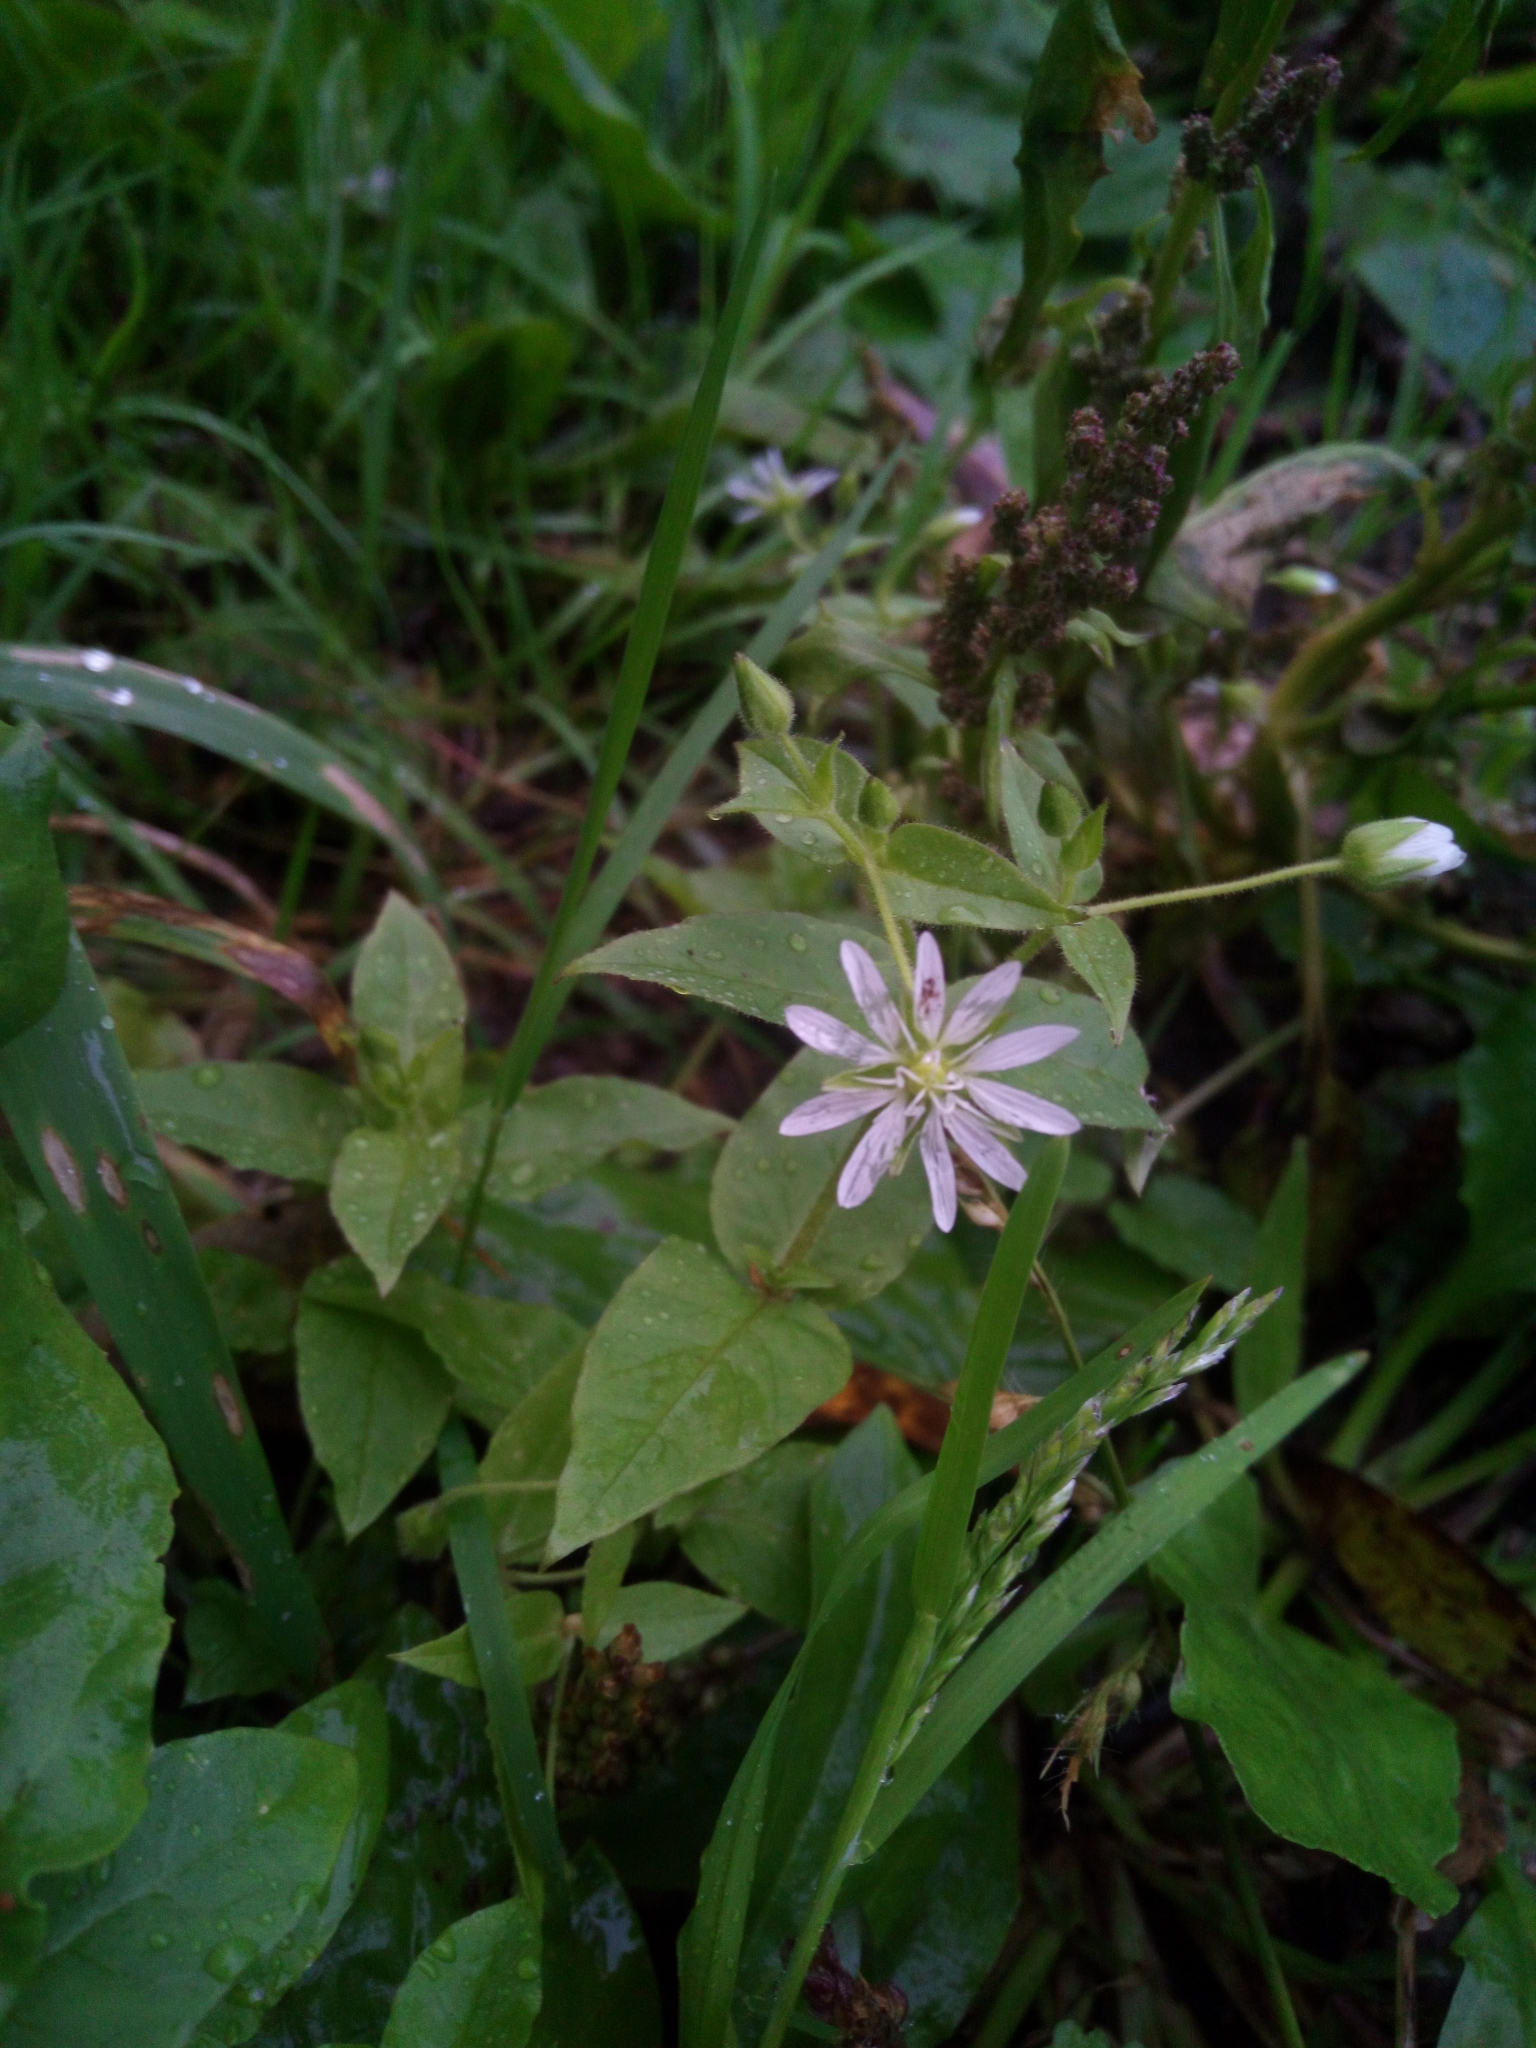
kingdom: Plantae
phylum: Tracheophyta
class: Magnoliopsida
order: Caryophyllales
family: Caryophyllaceae
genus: Stellaria
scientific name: Stellaria aquatica
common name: Water chickweed
